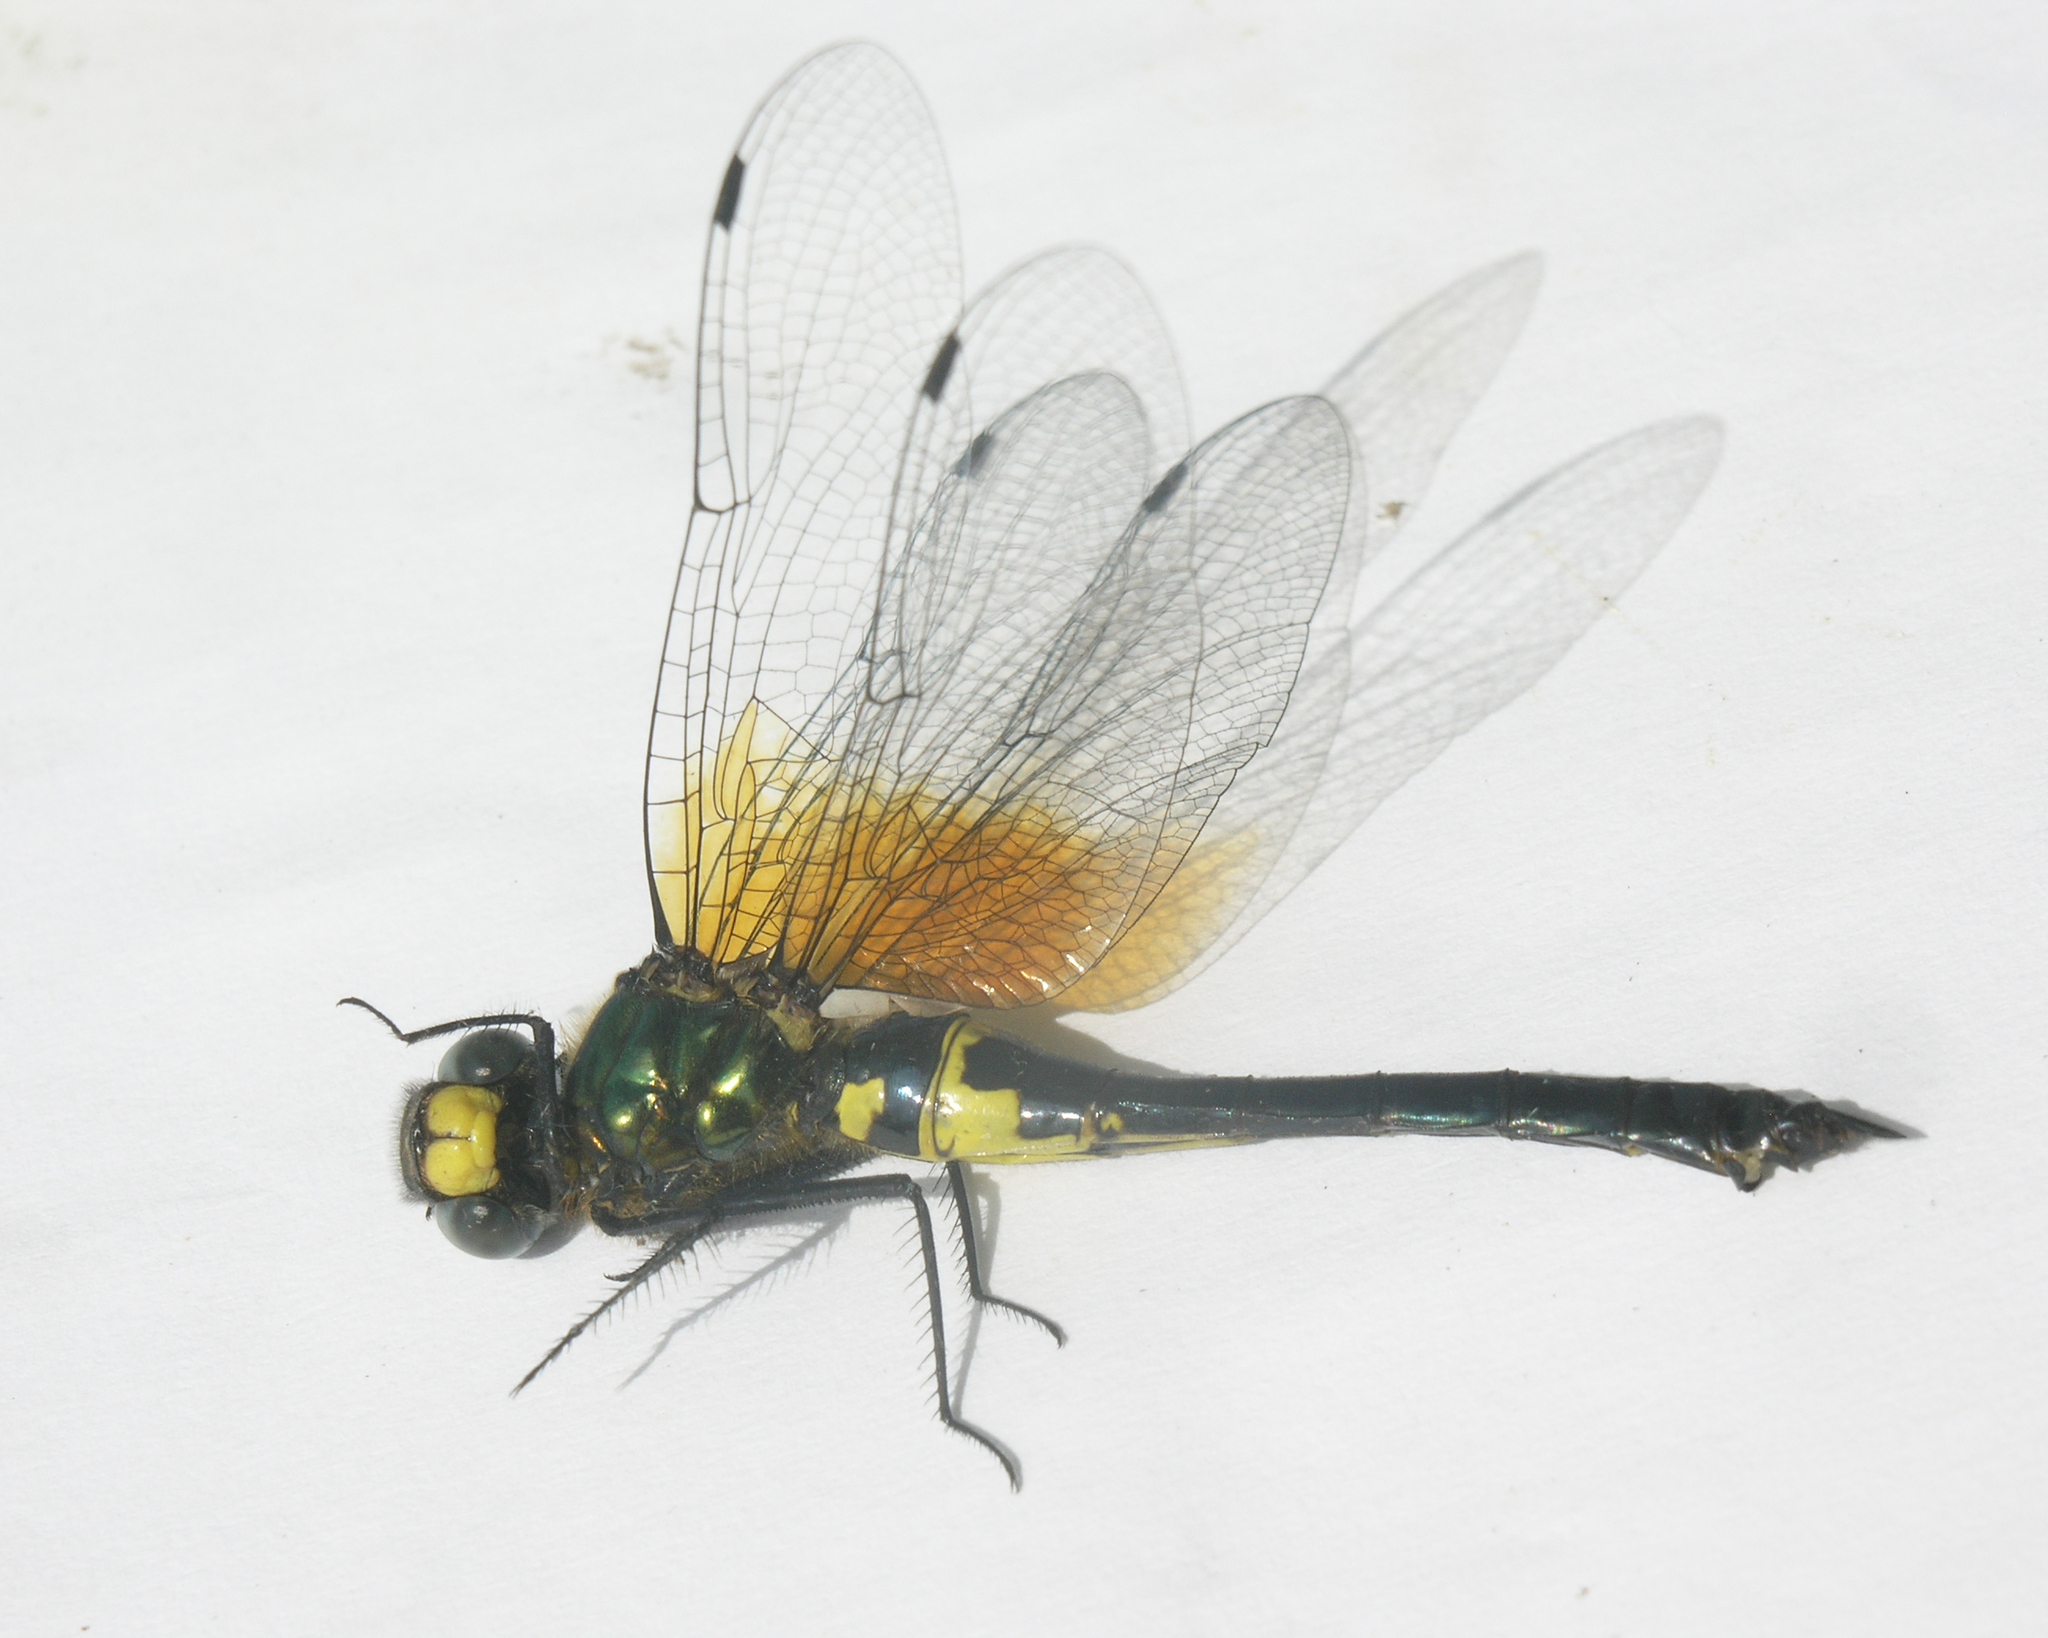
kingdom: Animalia
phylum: Arthropoda
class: Insecta
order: Odonata
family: Corduliidae
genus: Somatochlora
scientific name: Somatochlora graeseri
